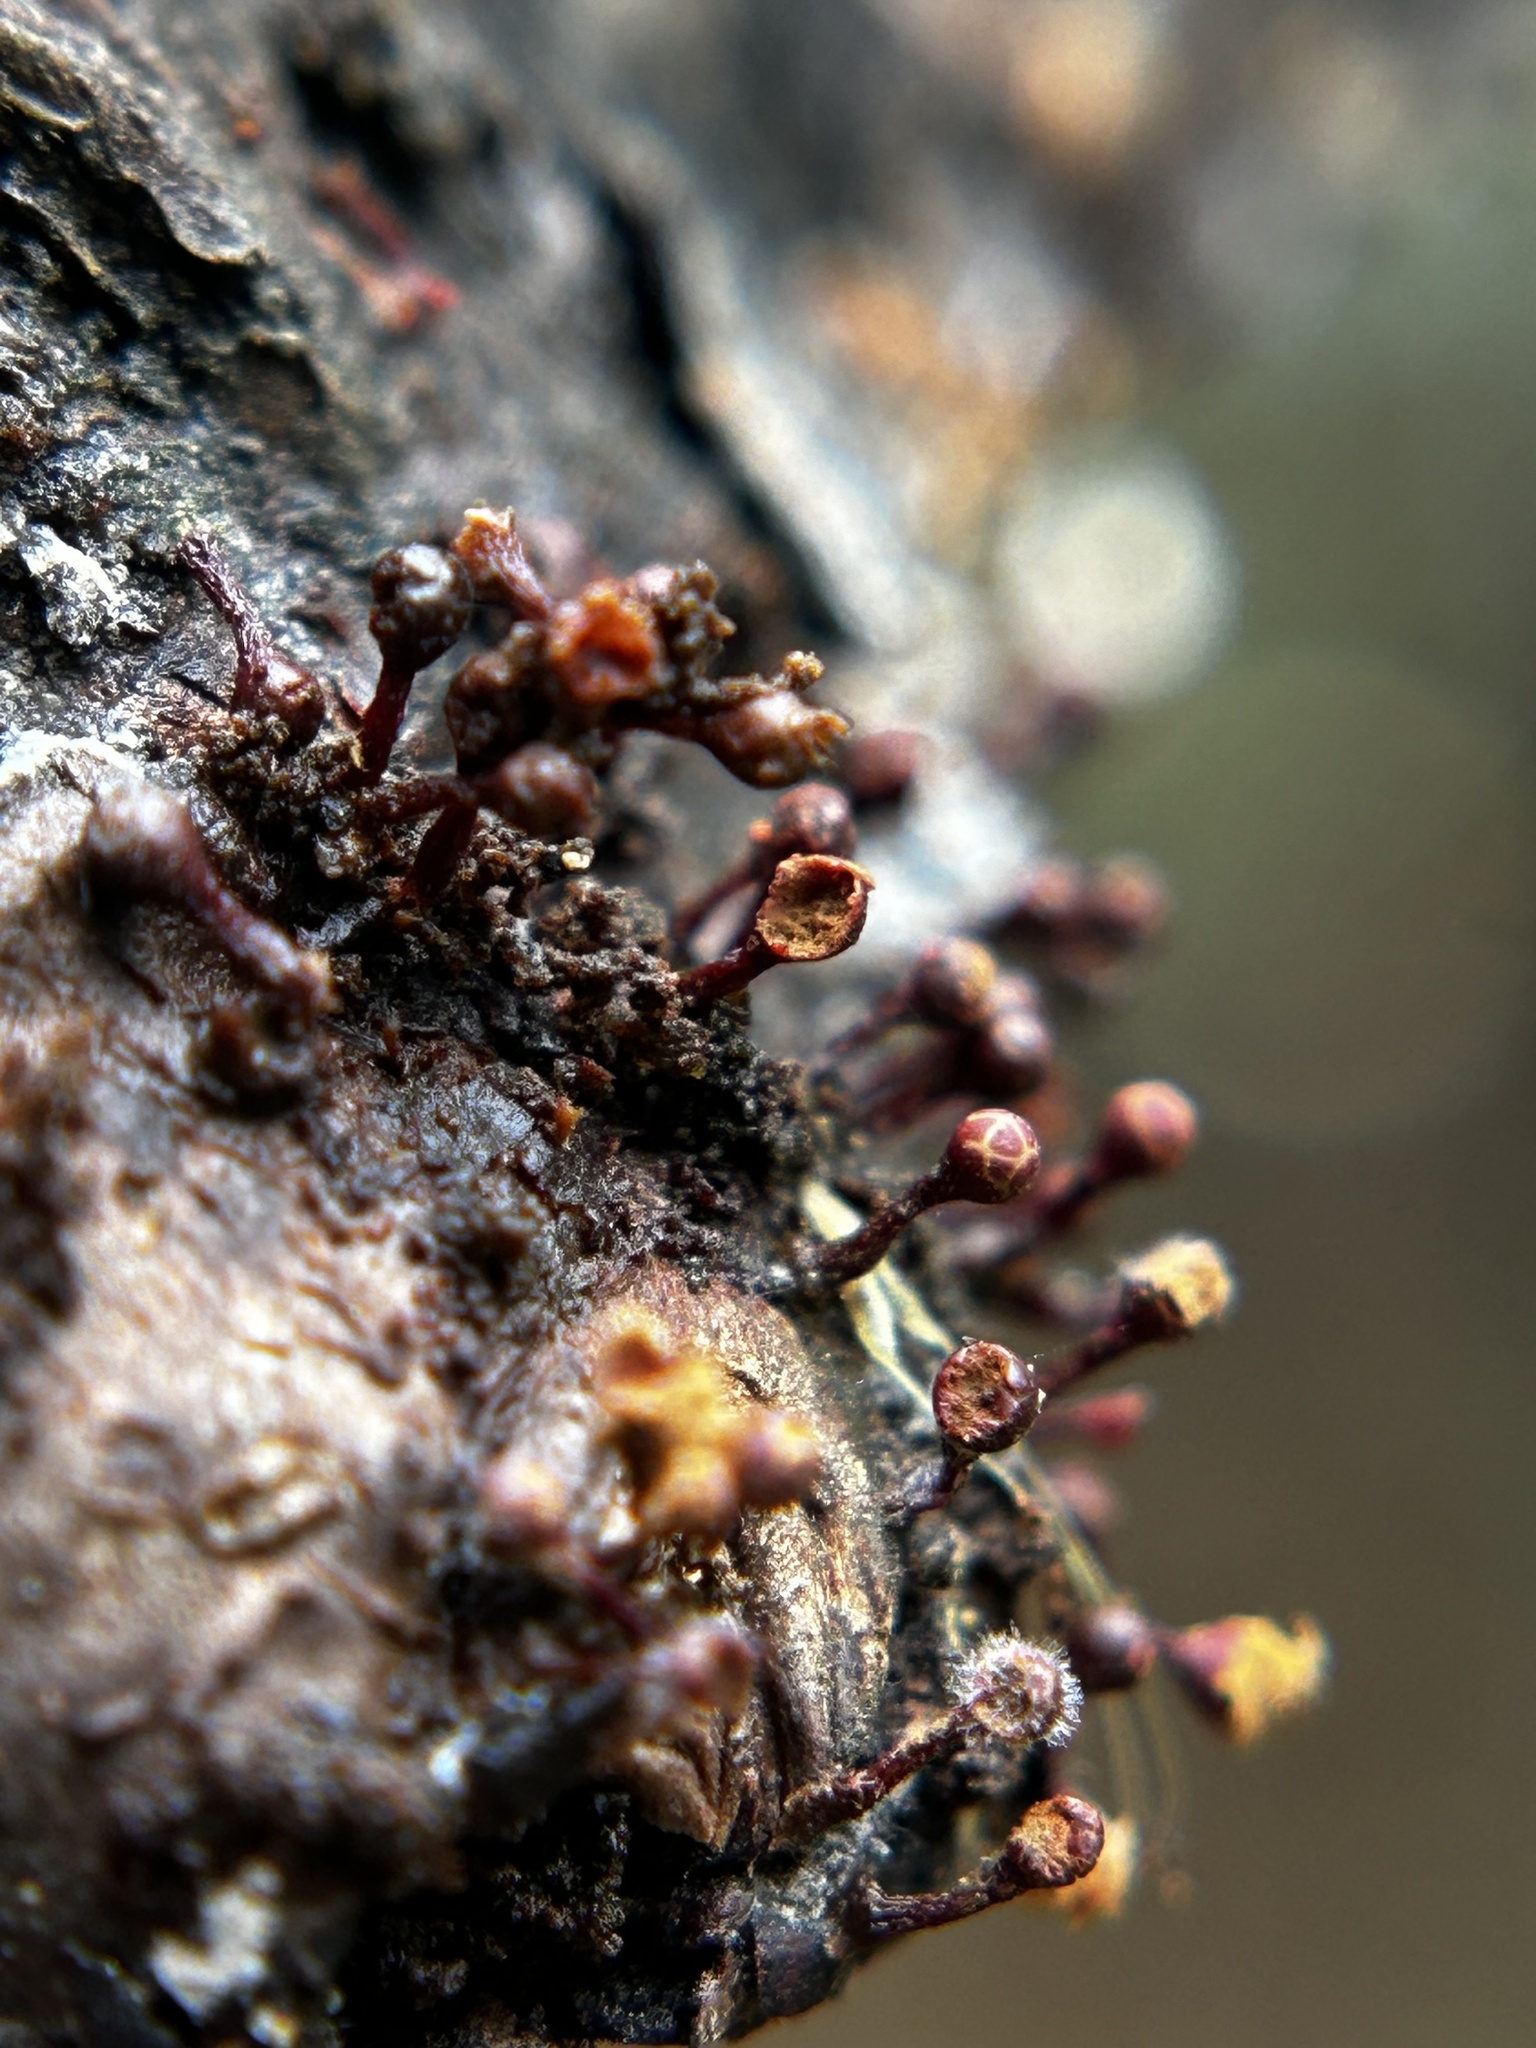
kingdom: Protozoa
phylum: Mycetozoa
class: Myxomycetes
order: Trichiales
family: Trichiaceae
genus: Trichia
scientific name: Trichia botrytis
